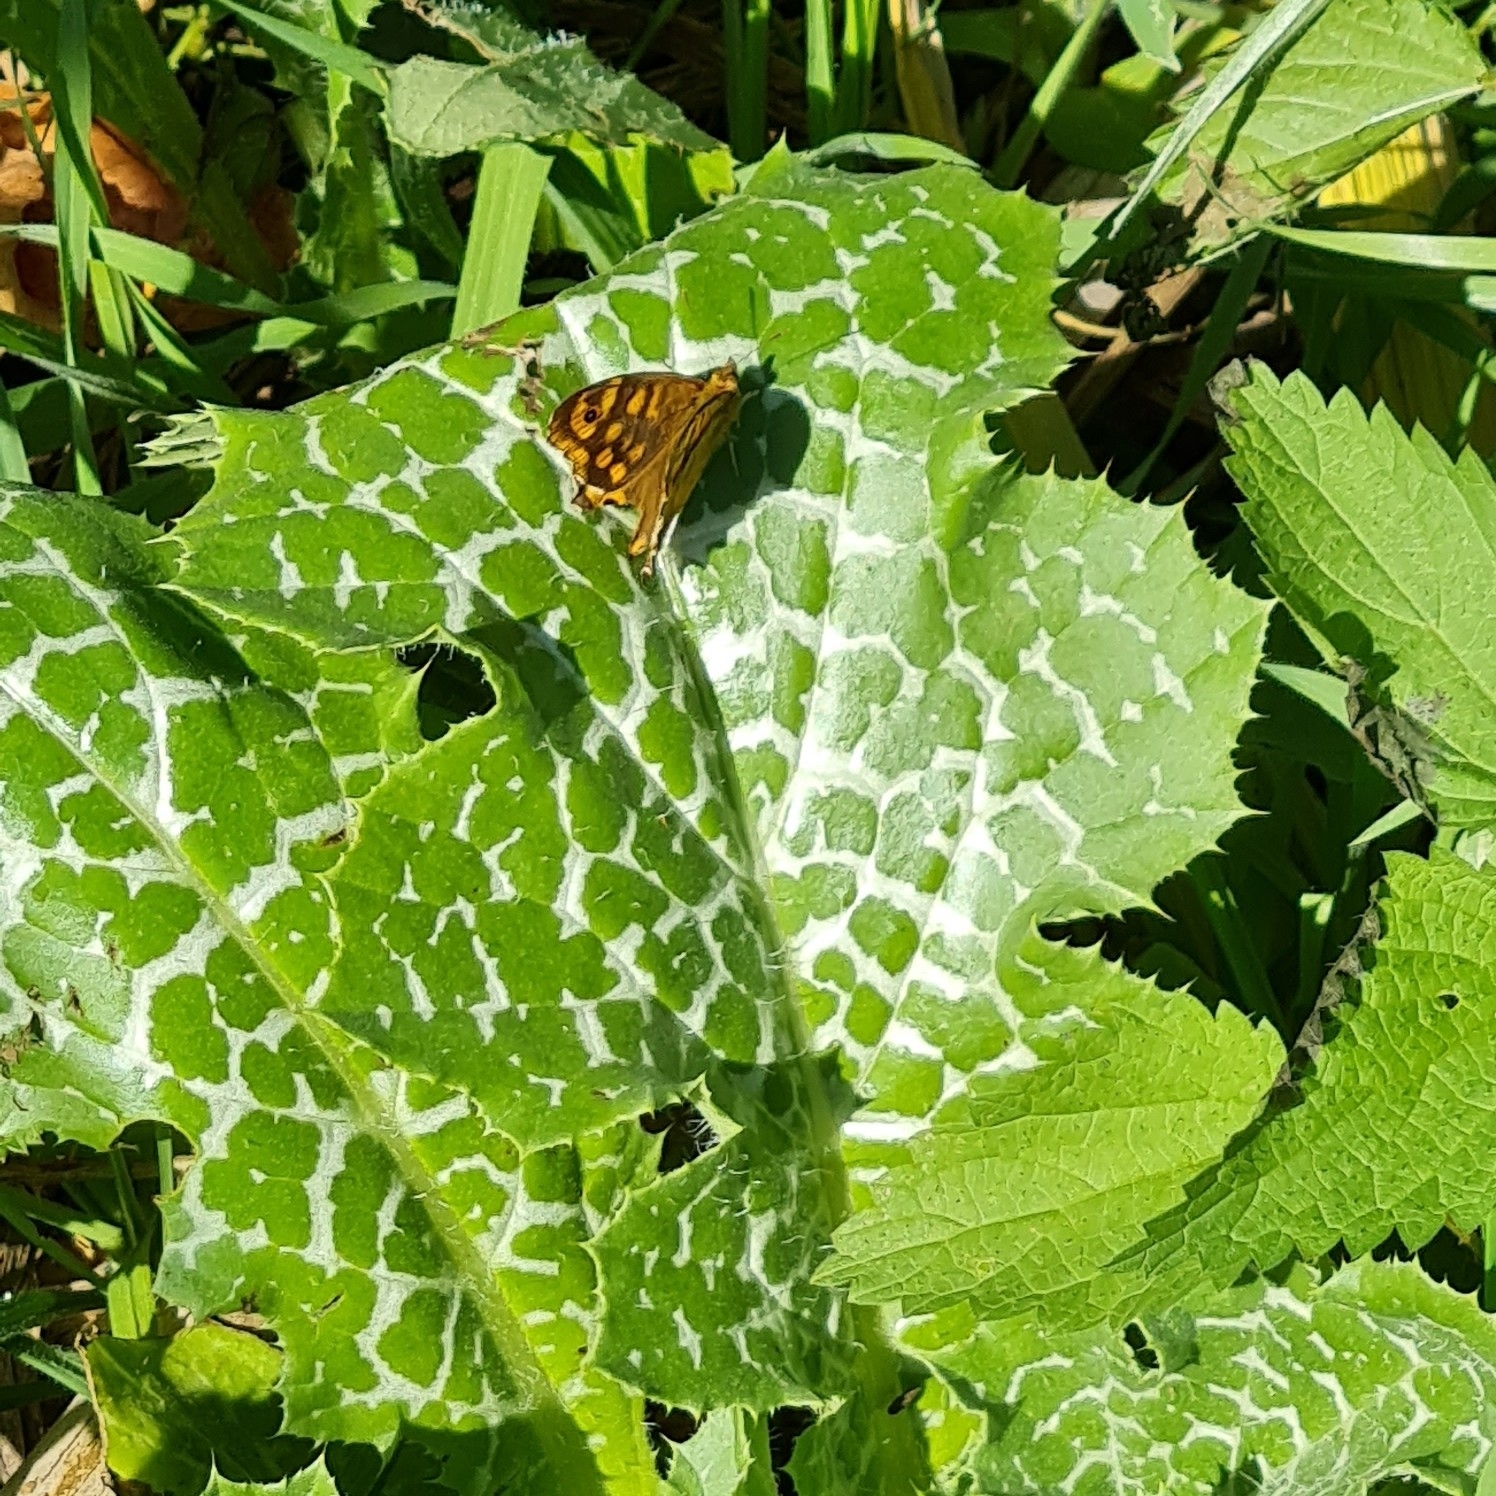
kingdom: Animalia
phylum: Arthropoda
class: Insecta
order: Lepidoptera
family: Nymphalidae
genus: Pararge
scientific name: Pararge aegeria
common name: Speckled wood
